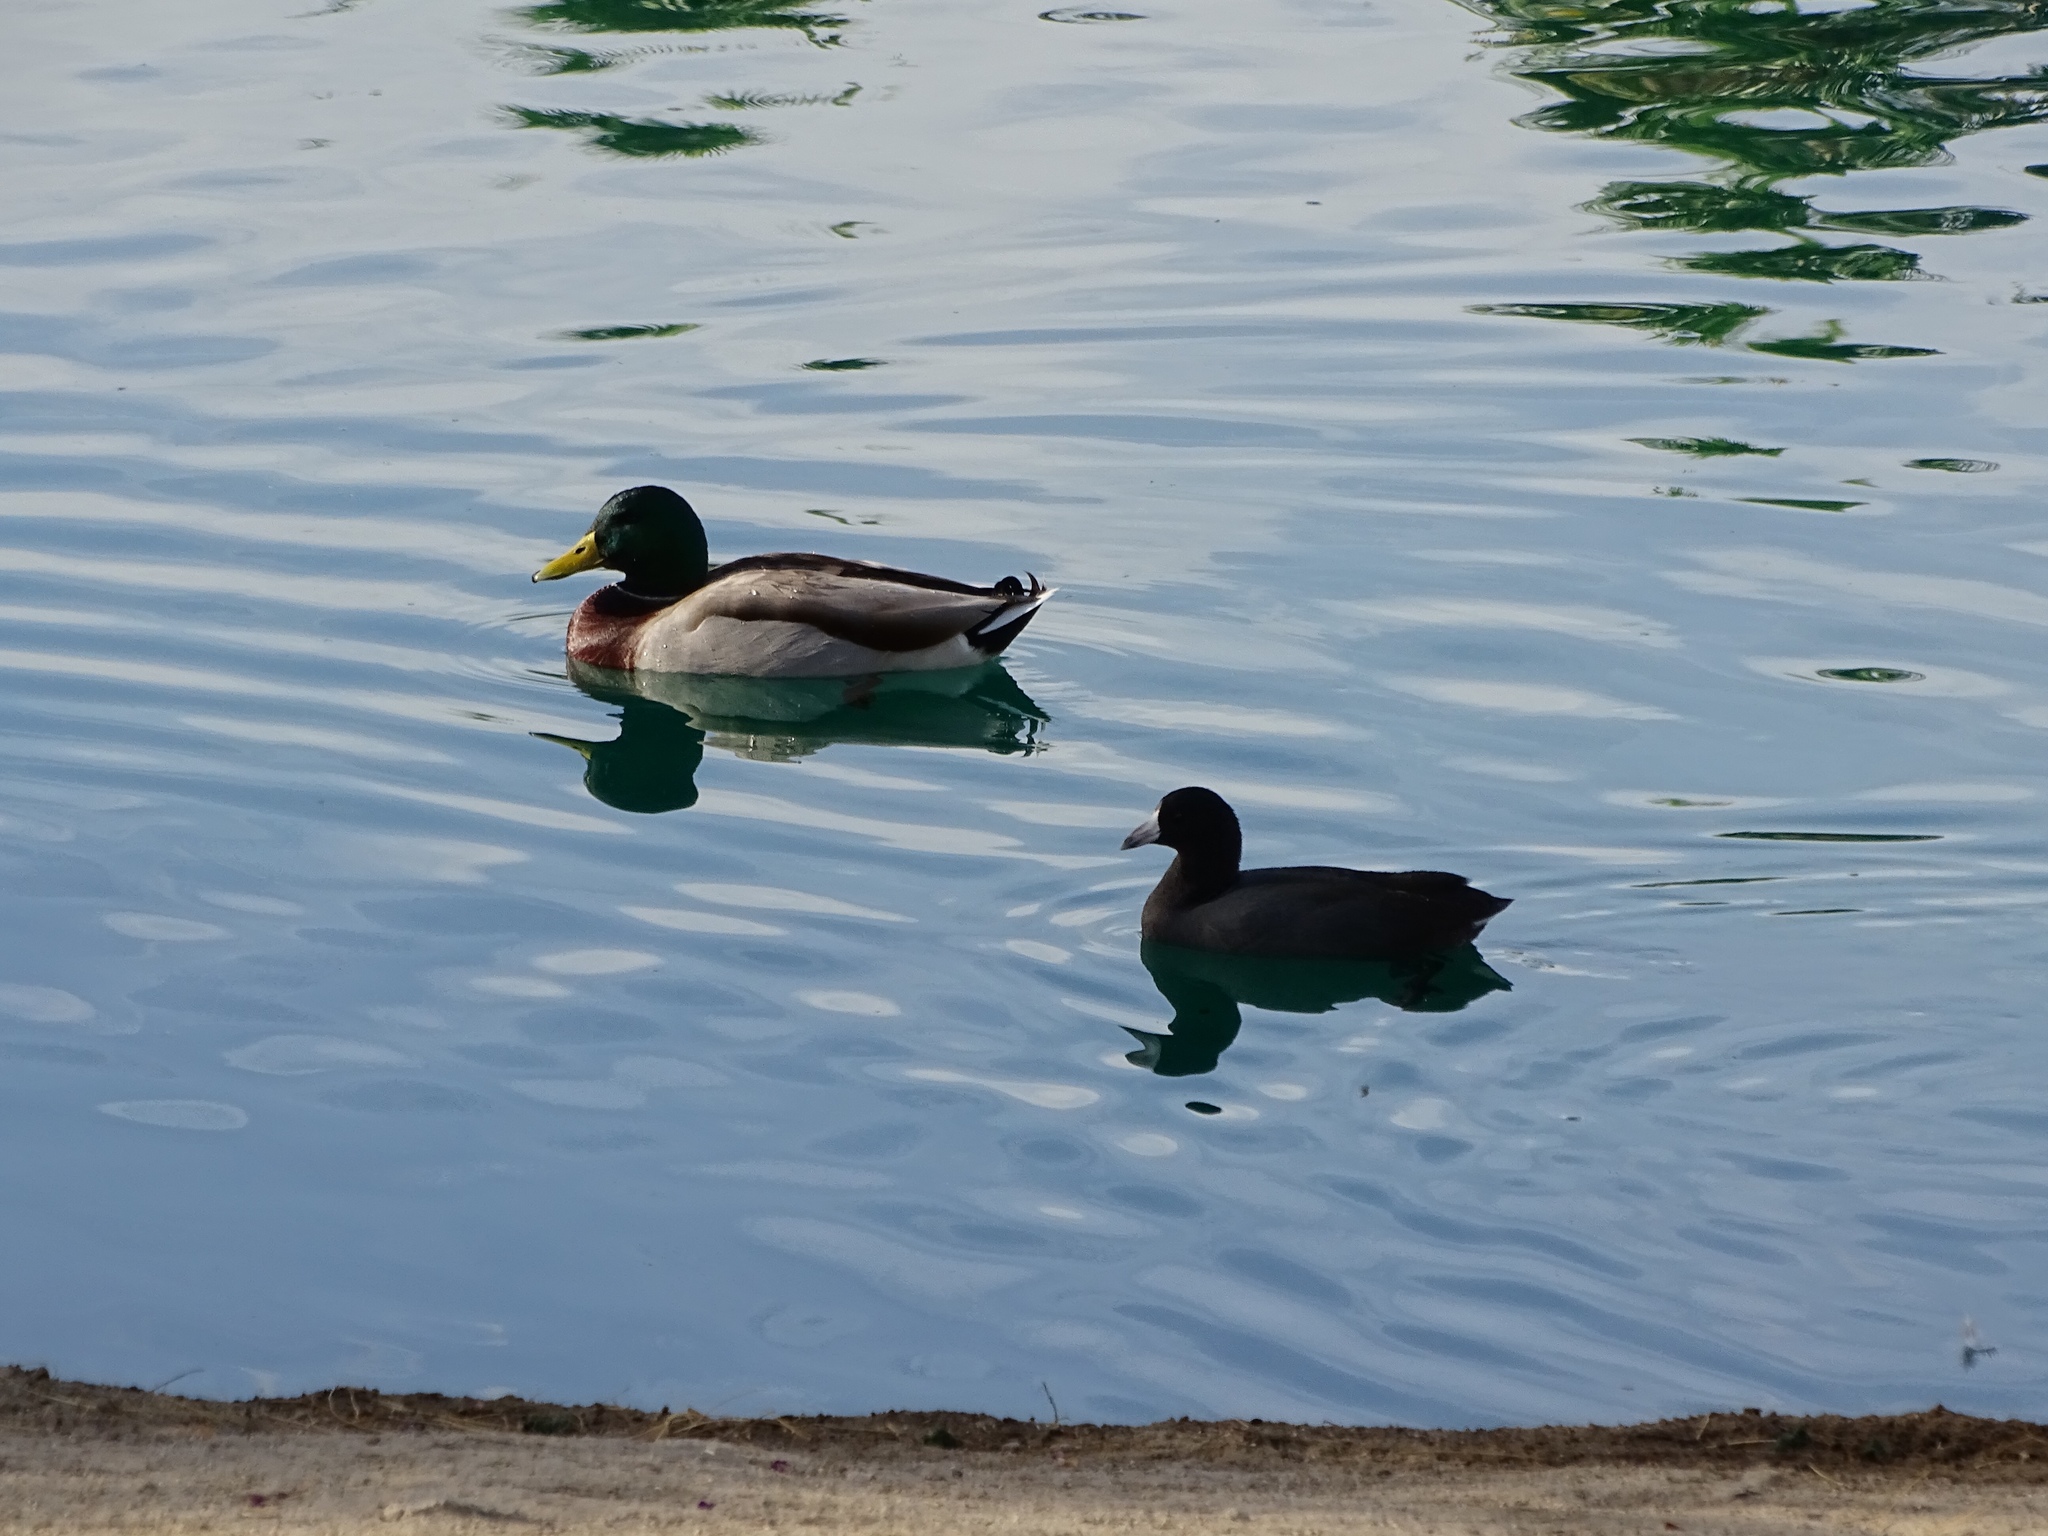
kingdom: Animalia
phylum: Chordata
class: Aves
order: Anseriformes
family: Anatidae
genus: Anas
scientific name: Anas platyrhynchos
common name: Mallard
